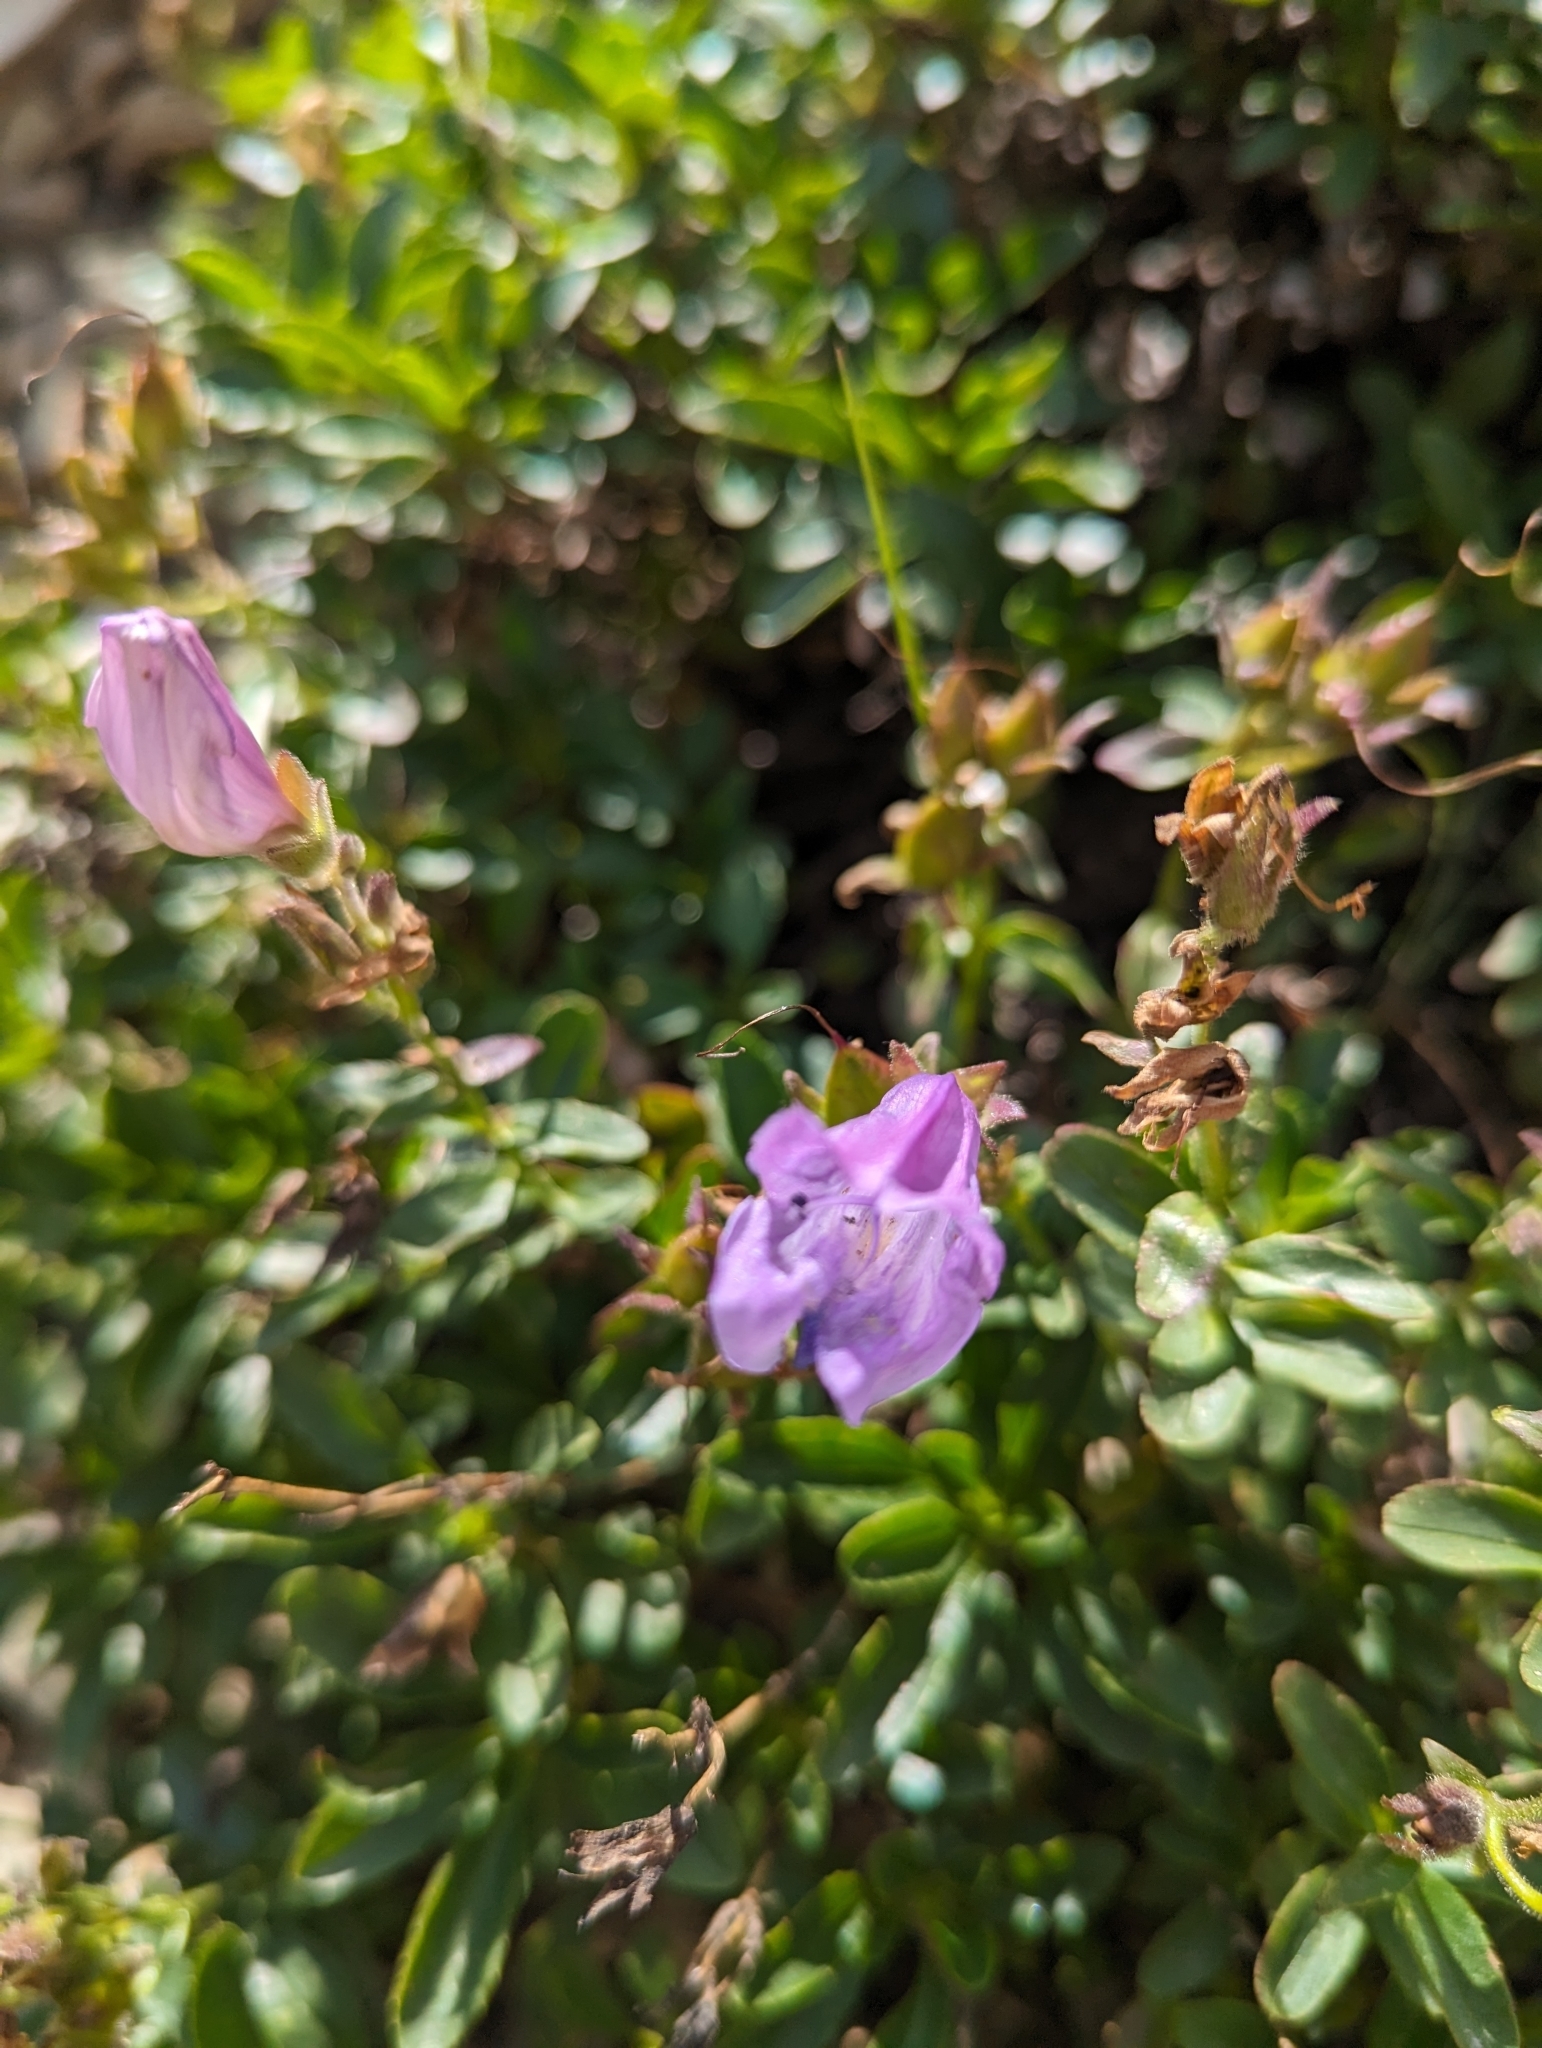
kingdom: Plantae
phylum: Tracheophyta
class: Magnoliopsida
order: Lamiales
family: Plantaginaceae
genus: Penstemon
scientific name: Penstemon ellipticus
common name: Alpine beardtongue
